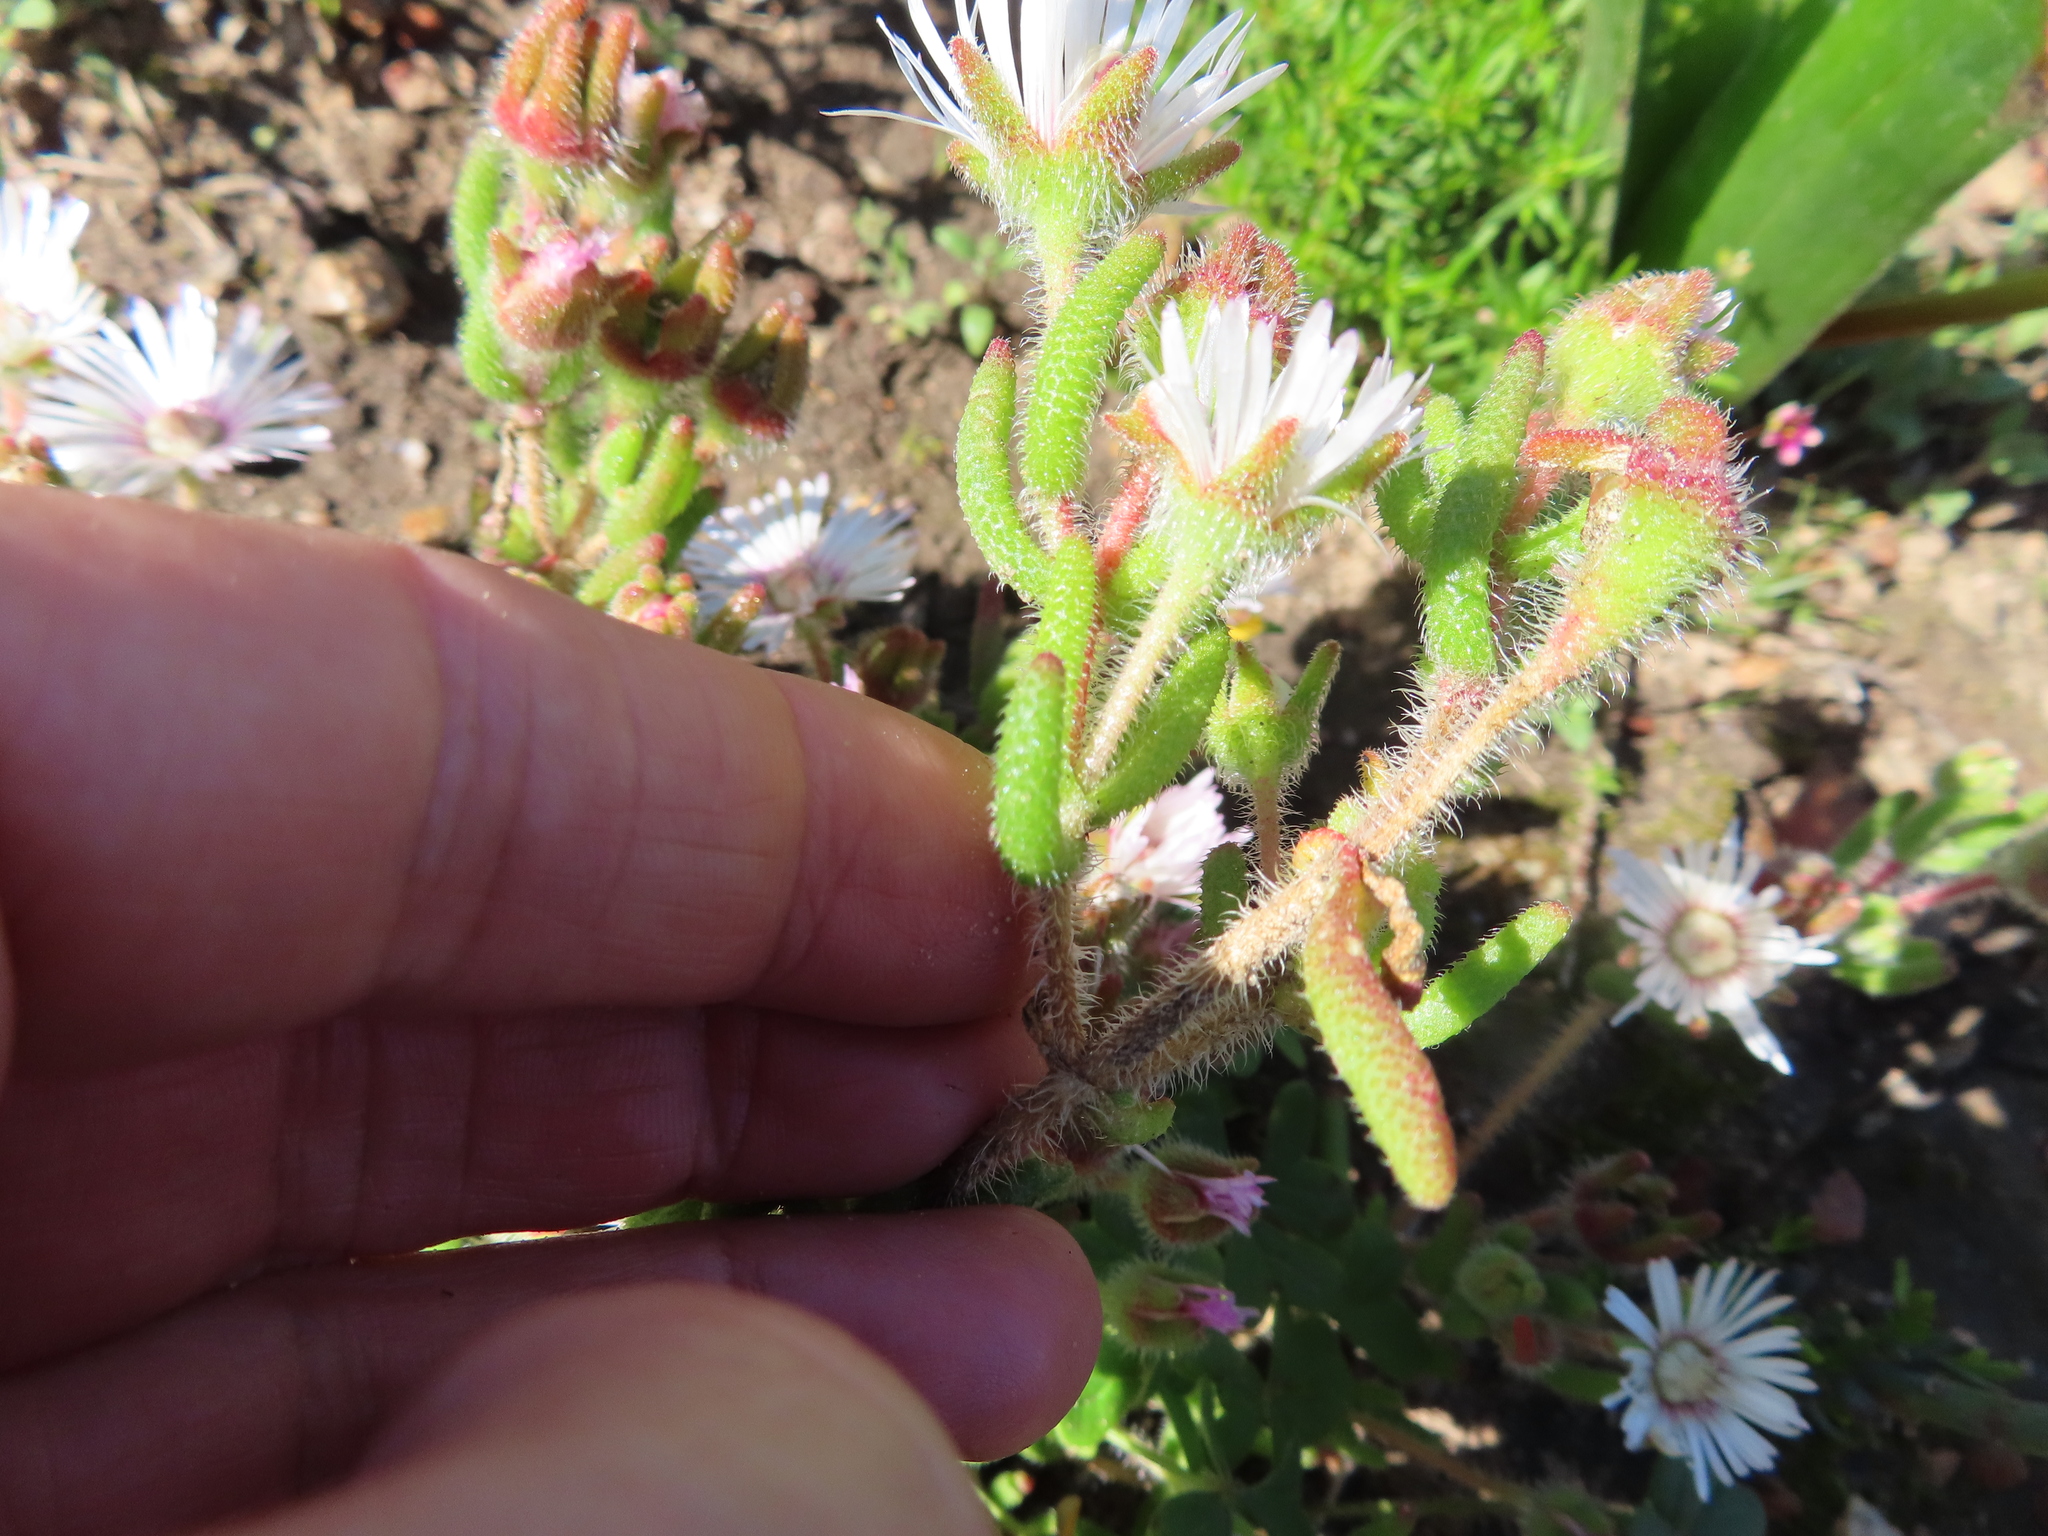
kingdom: Plantae
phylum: Tracheophyta
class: Magnoliopsida
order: Caryophyllales
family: Aizoaceae
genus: Drosanthemum
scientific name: Drosanthemum hispifolium
